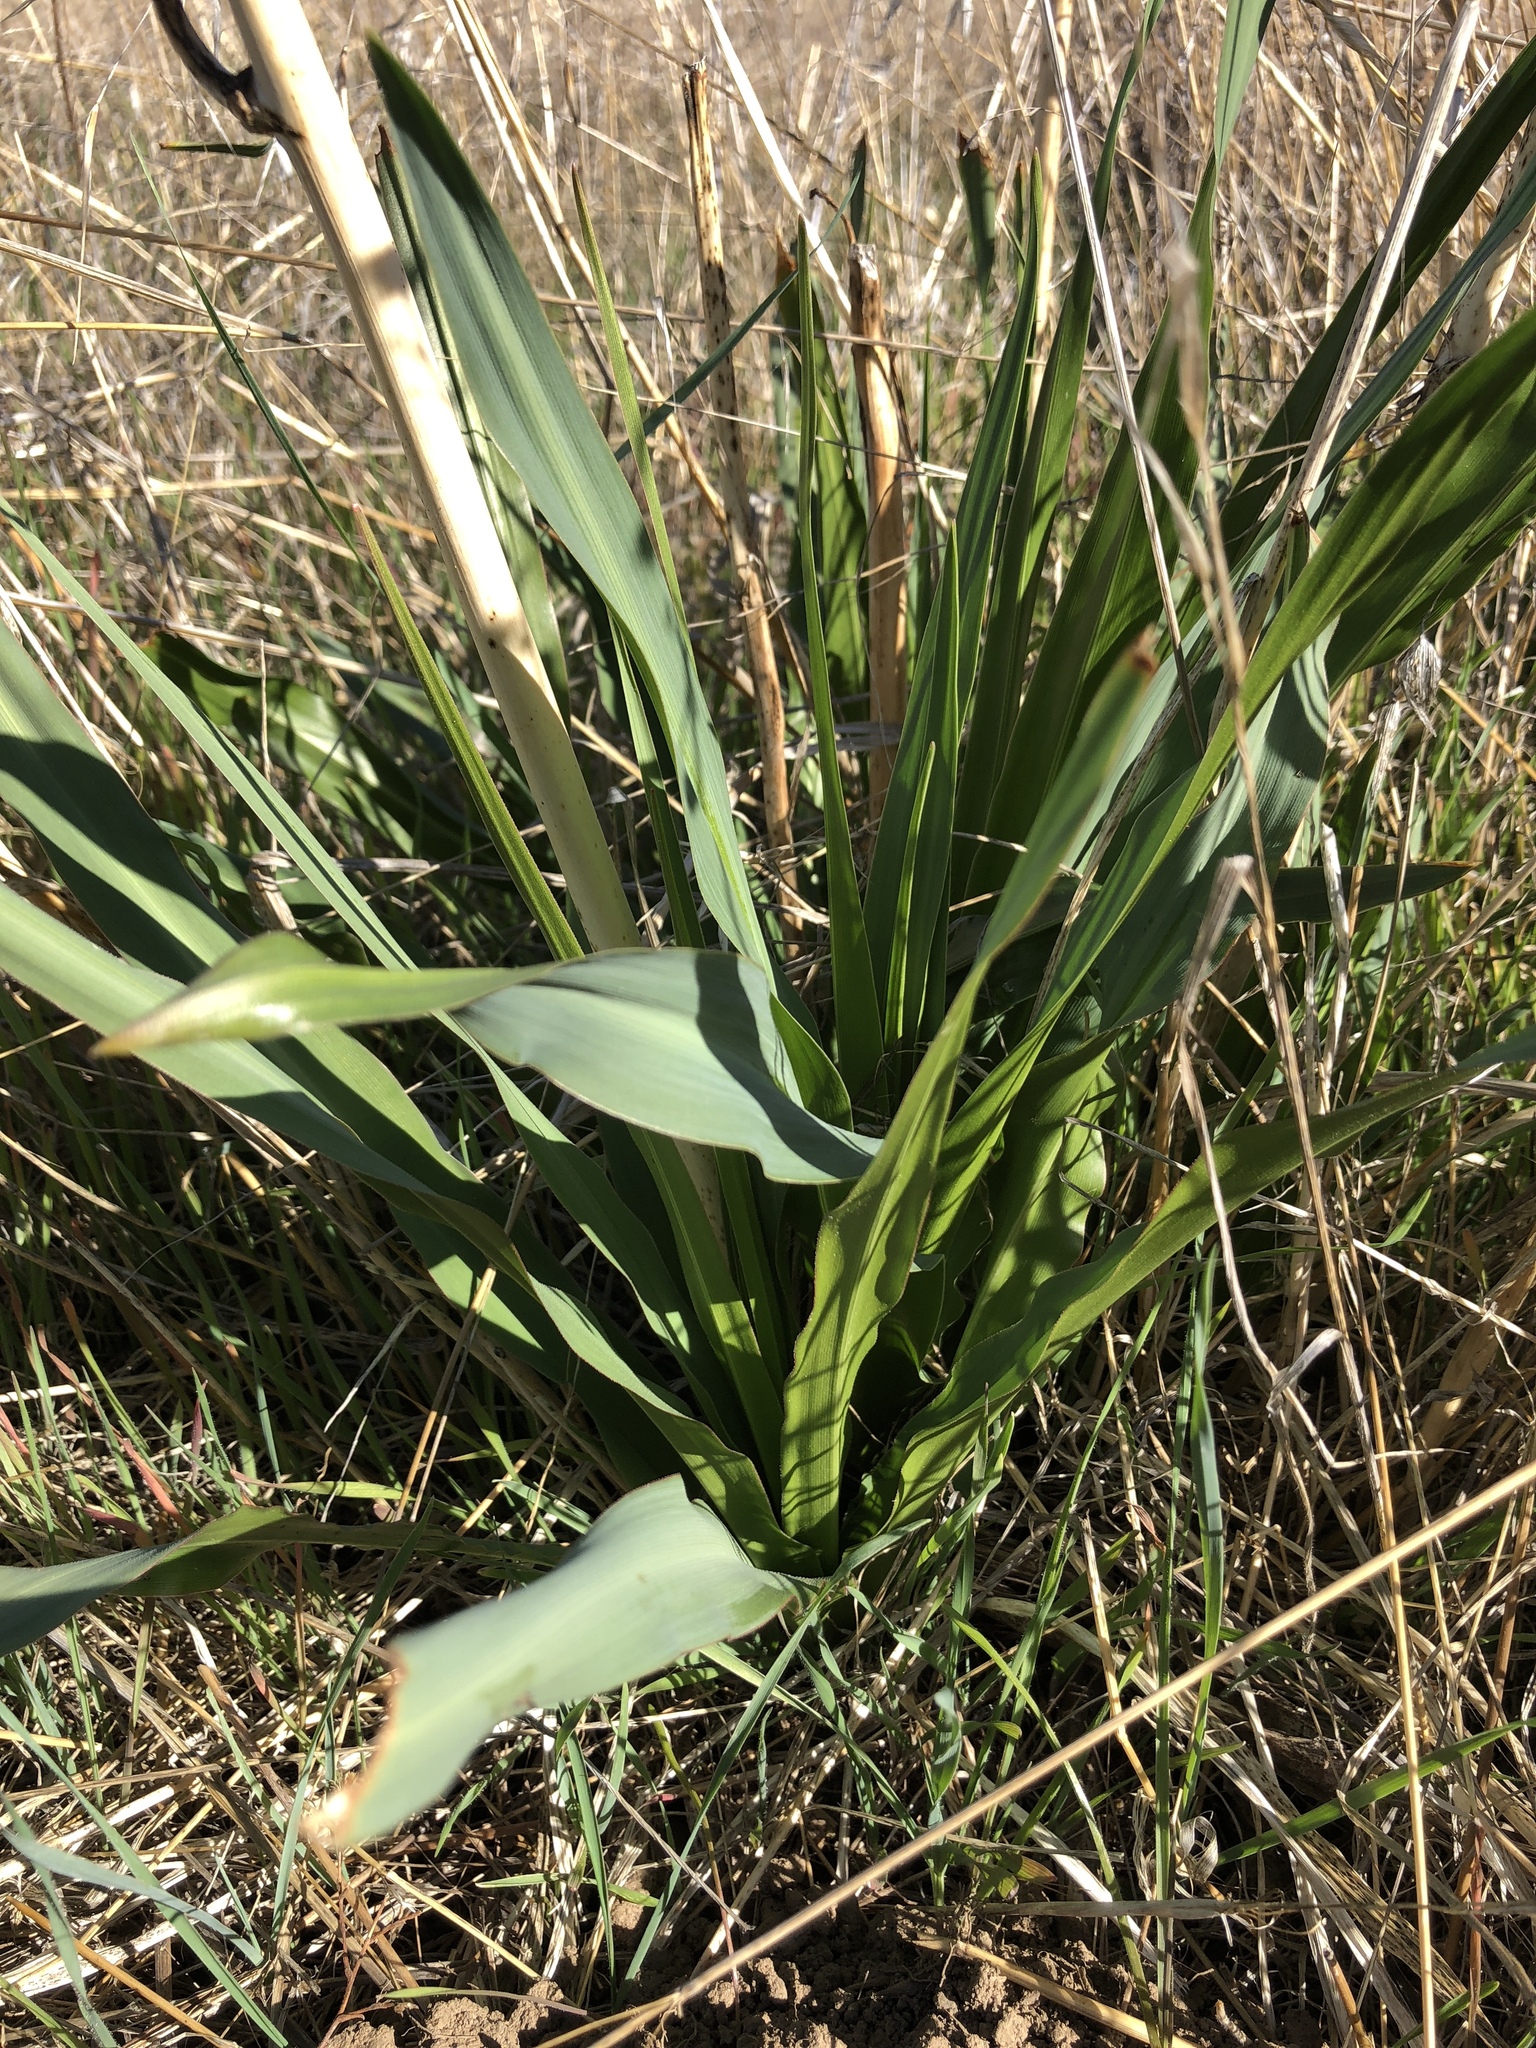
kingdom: Plantae
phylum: Tracheophyta
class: Liliopsida
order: Asparagales
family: Asparagaceae
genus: Chlorogalum
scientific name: Chlorogalum pomeridianum
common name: Amole
